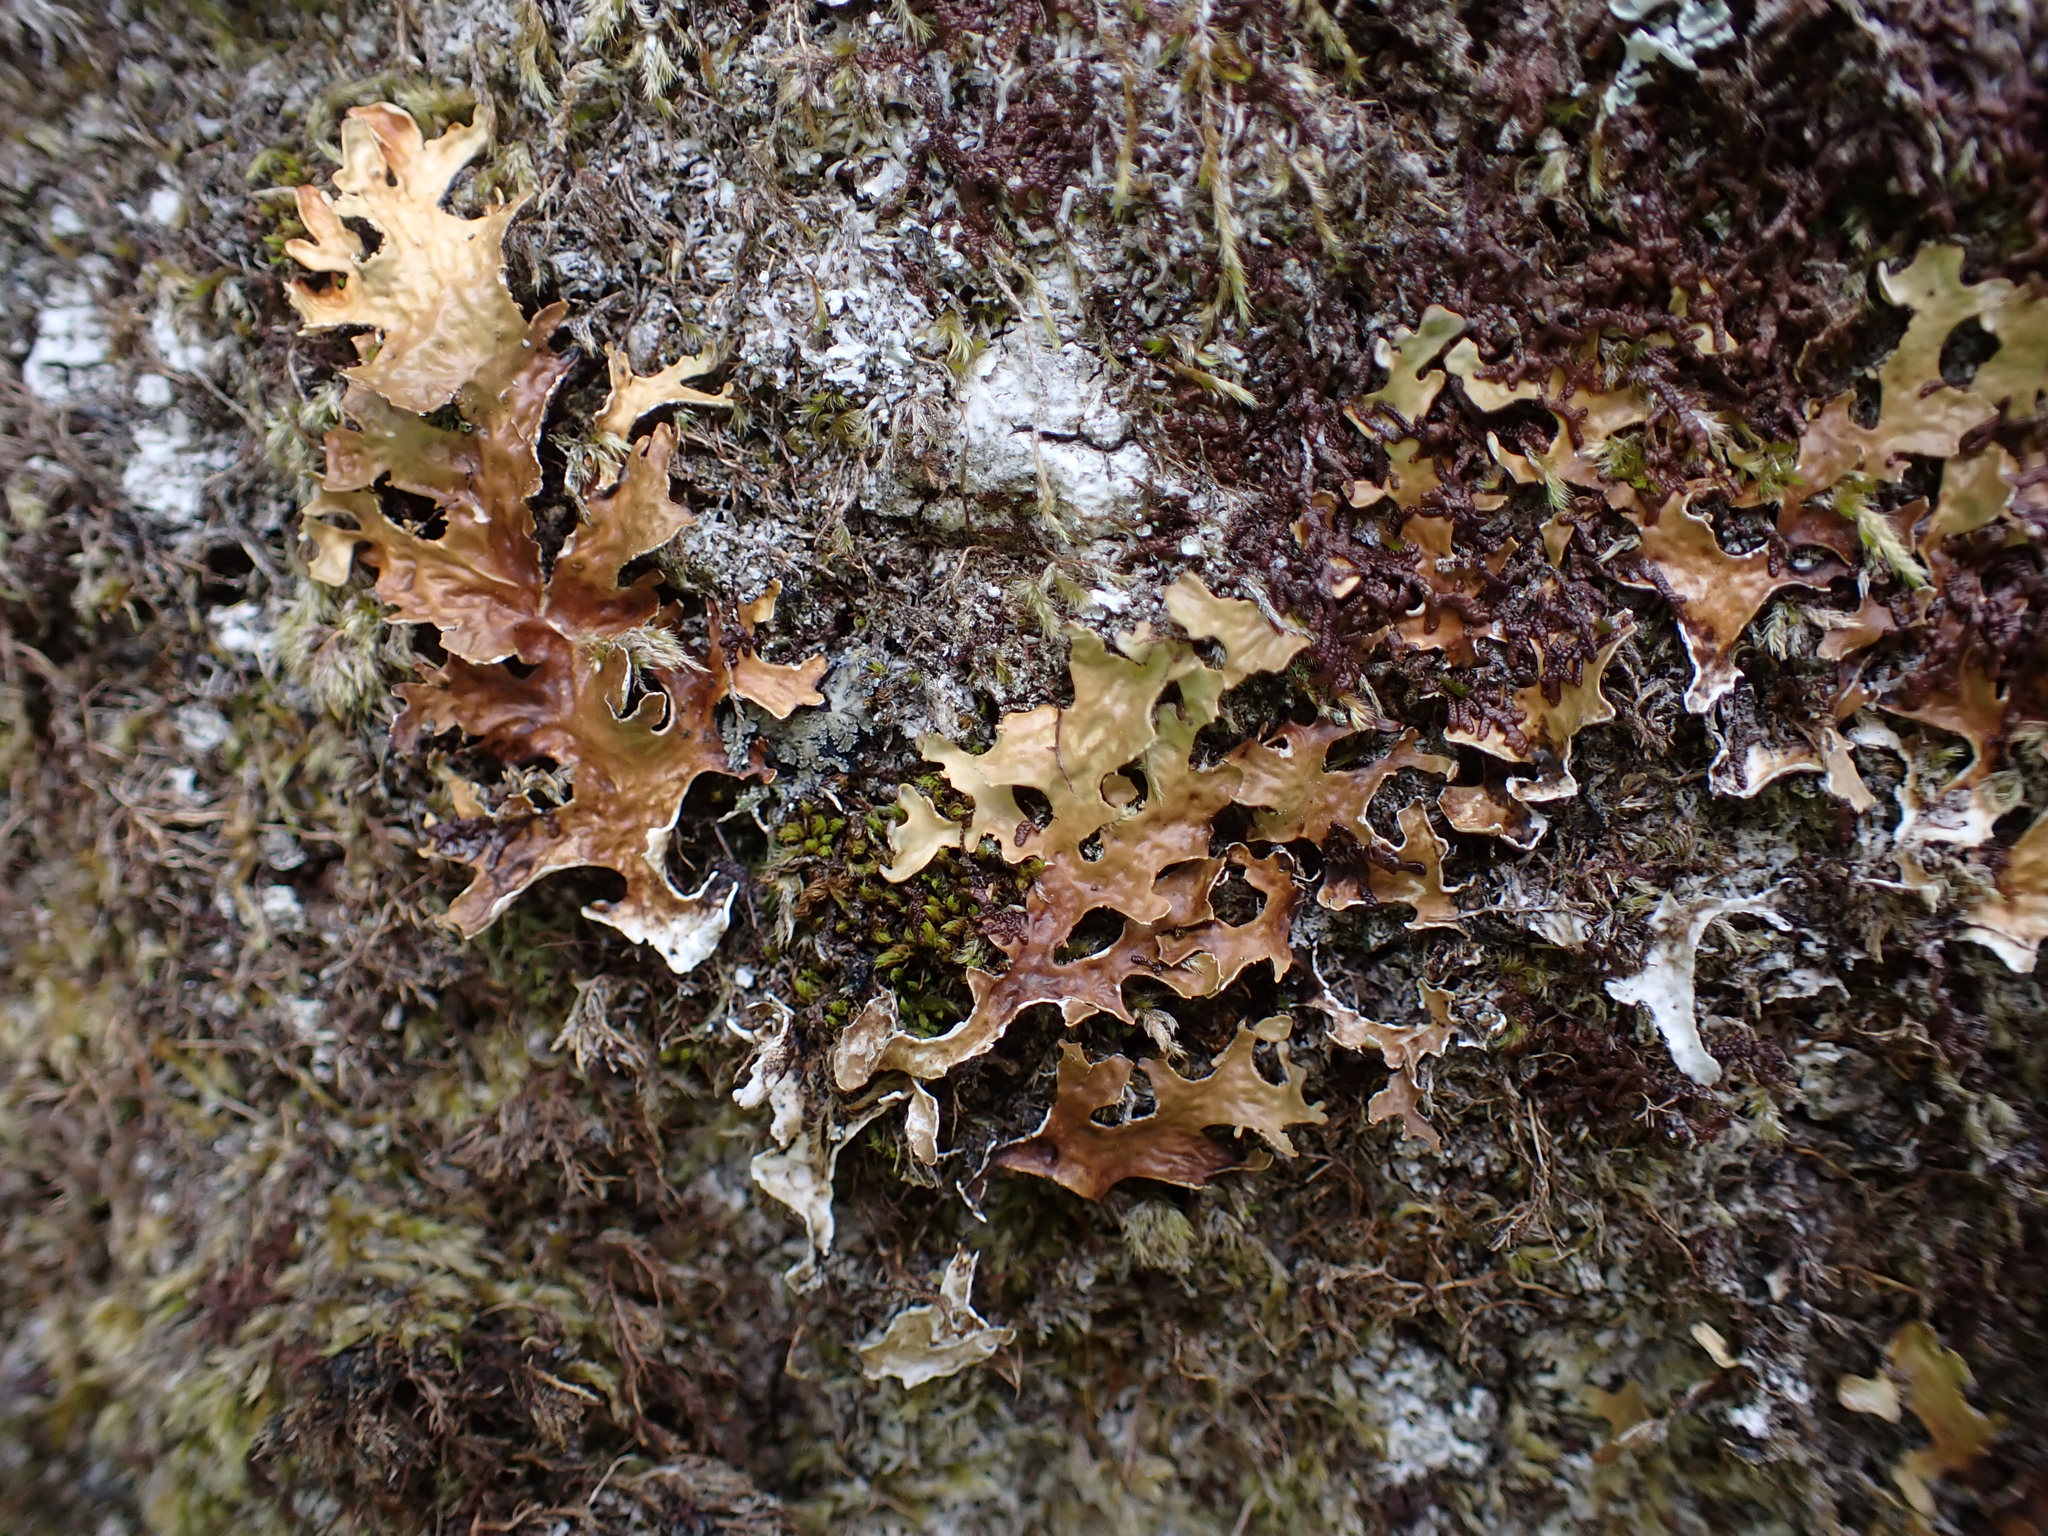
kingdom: Fungi
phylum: Ascomycota
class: Lecanoromycetes
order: Peltigerales
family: Lobariaceae
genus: Lobaria
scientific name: Lobaria pulmonaria
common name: Lungwort
